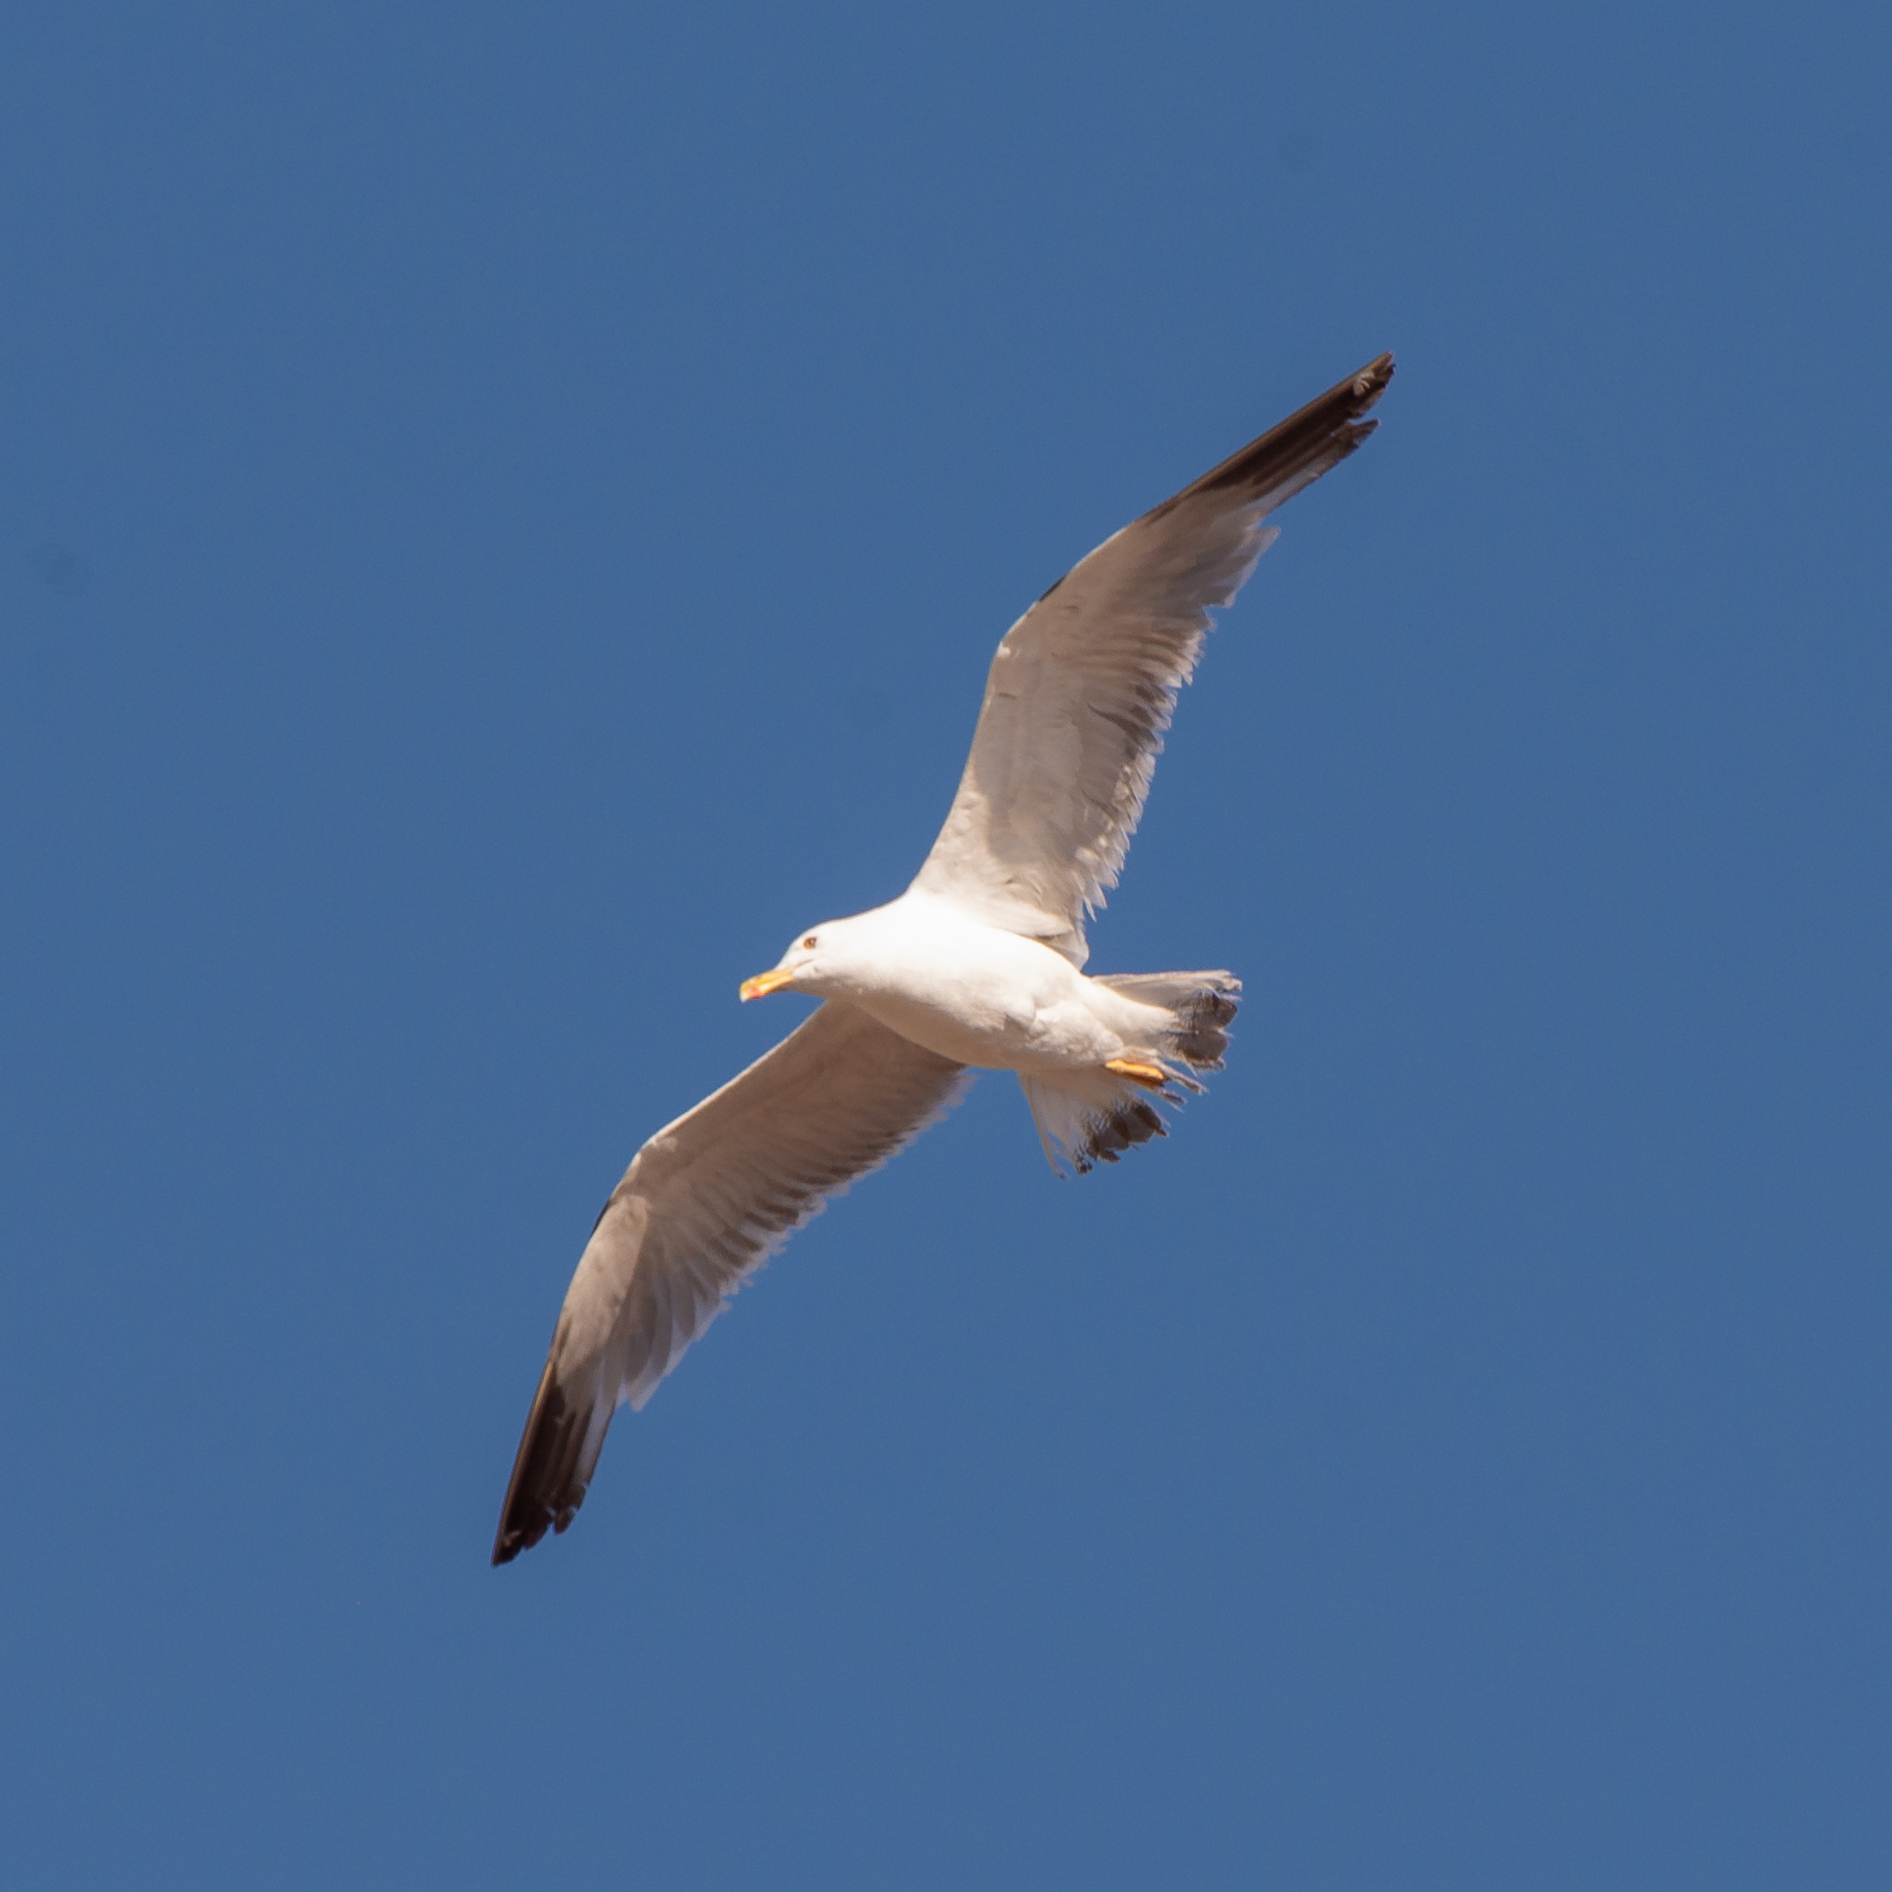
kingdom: Animalia
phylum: Chordata
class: Aves
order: Charadriiformes
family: Laridae
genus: Larus
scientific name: Larus michahellis
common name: Yellow-legged gull
